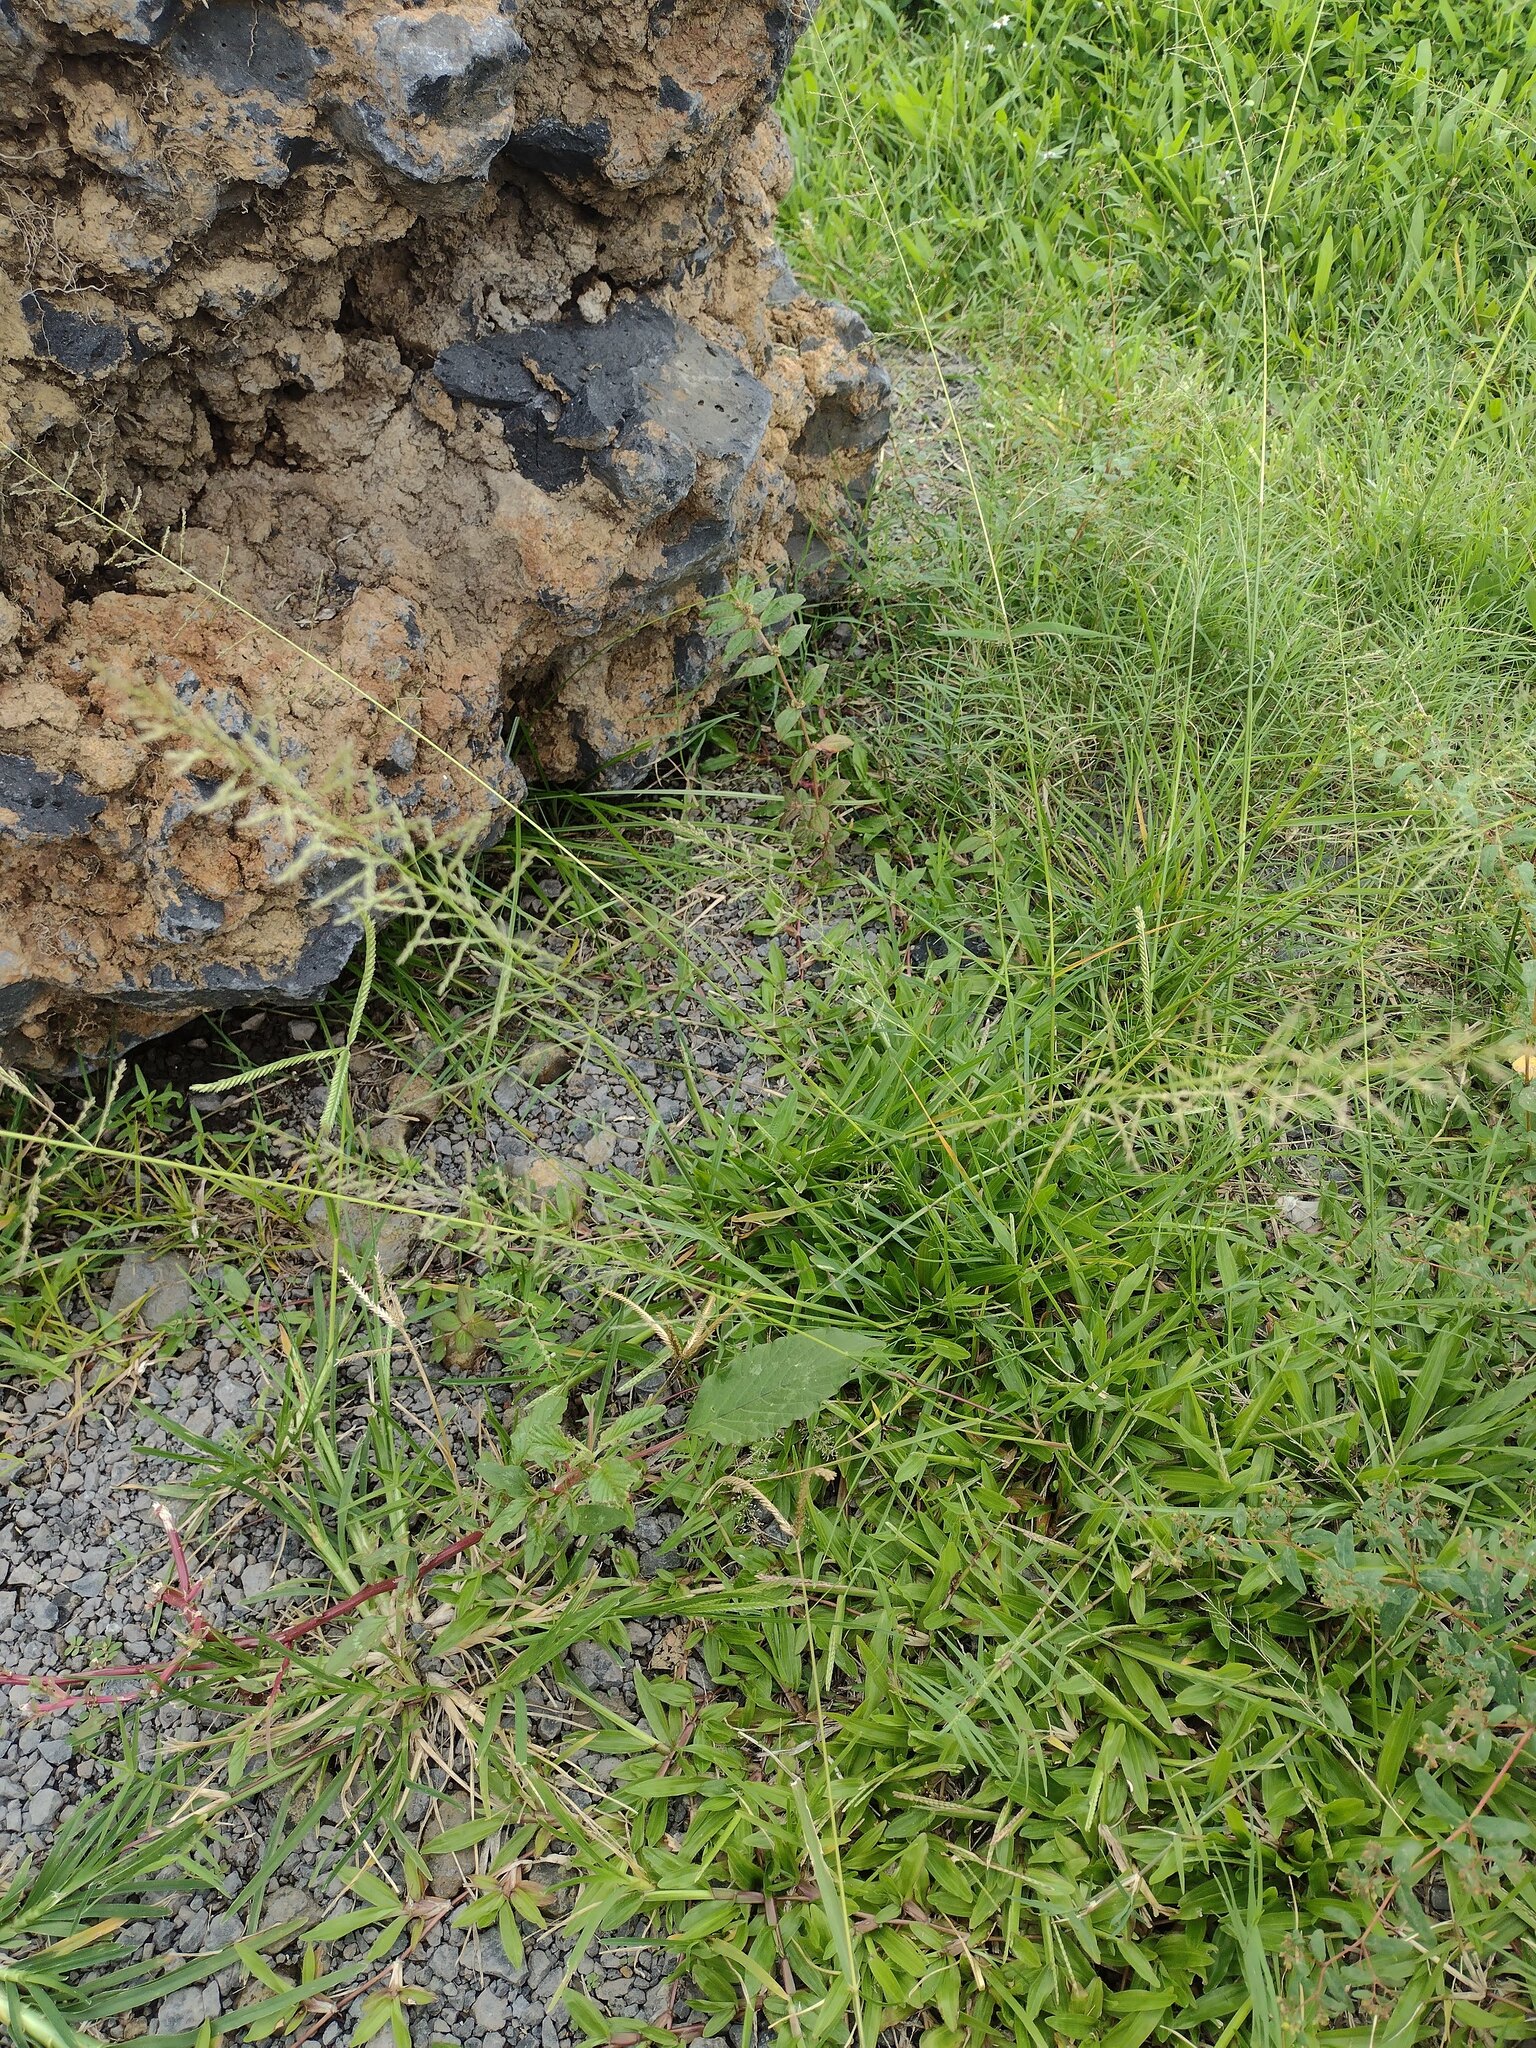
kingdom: Plantae
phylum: Tracheophyta
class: Liliopsida
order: Poales
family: Poaceae
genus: Sporobolus
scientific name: Sporobolus diandrus
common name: Tussock dropseed
